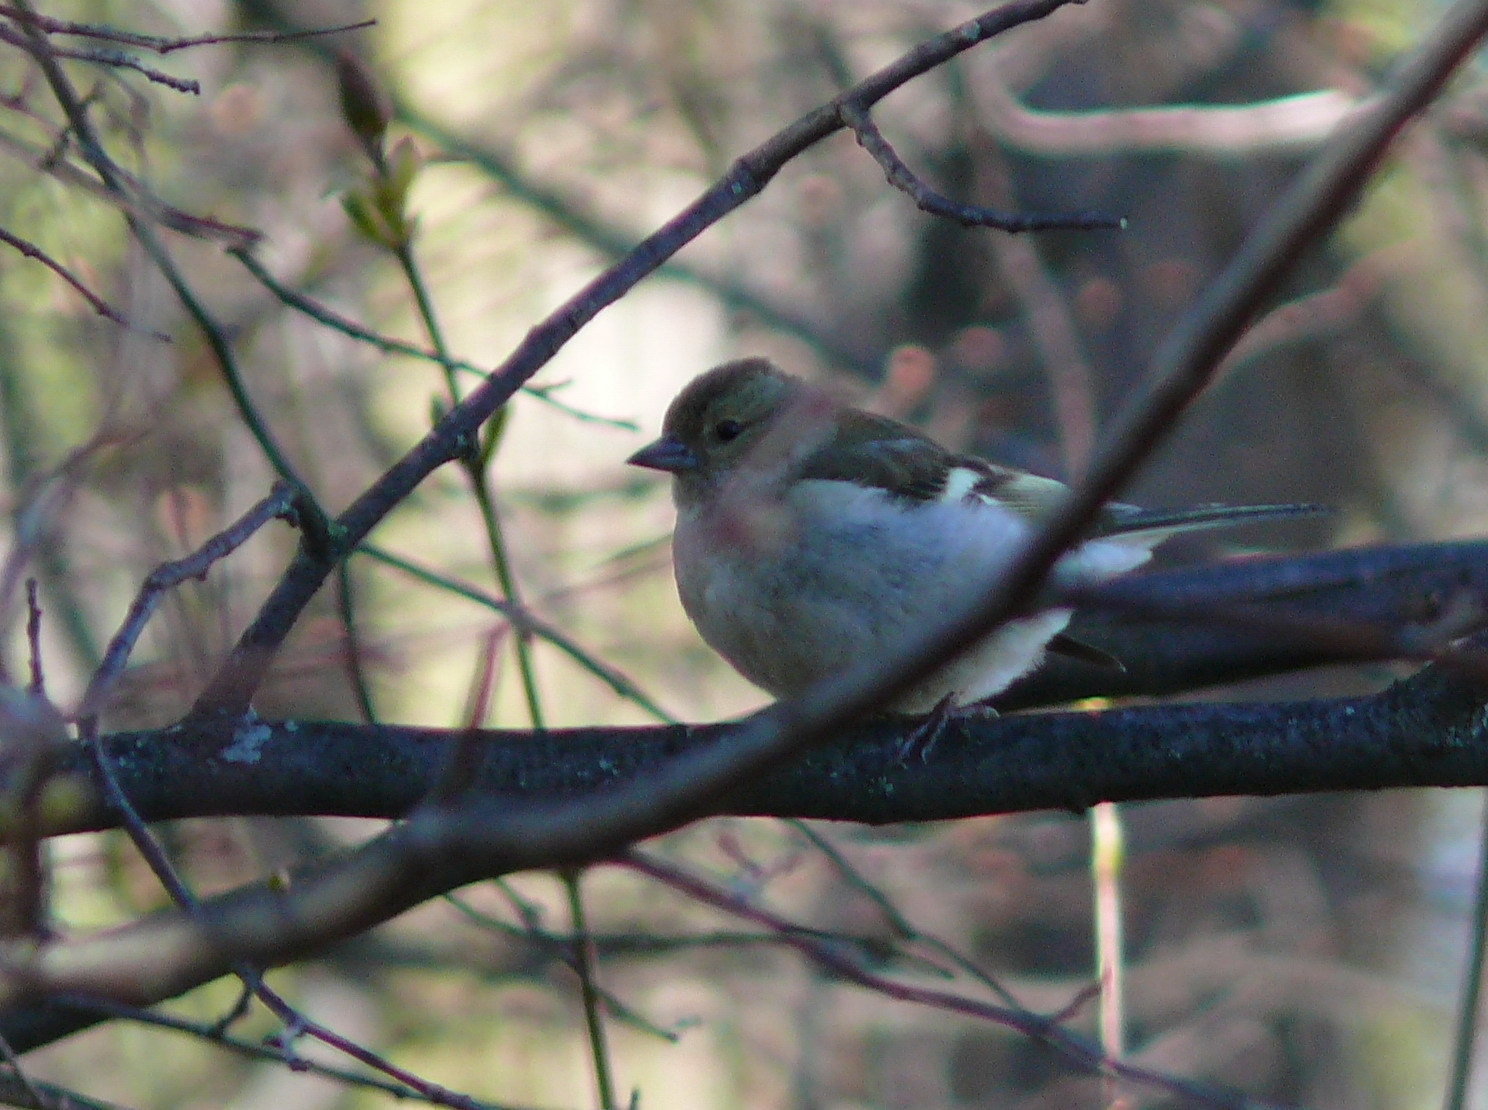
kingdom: Animalia
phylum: Chordata
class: Aves
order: Passeriformes
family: Fringillidae
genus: Fringilla
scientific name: Fringilla coelebs
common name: Common chaffinch
